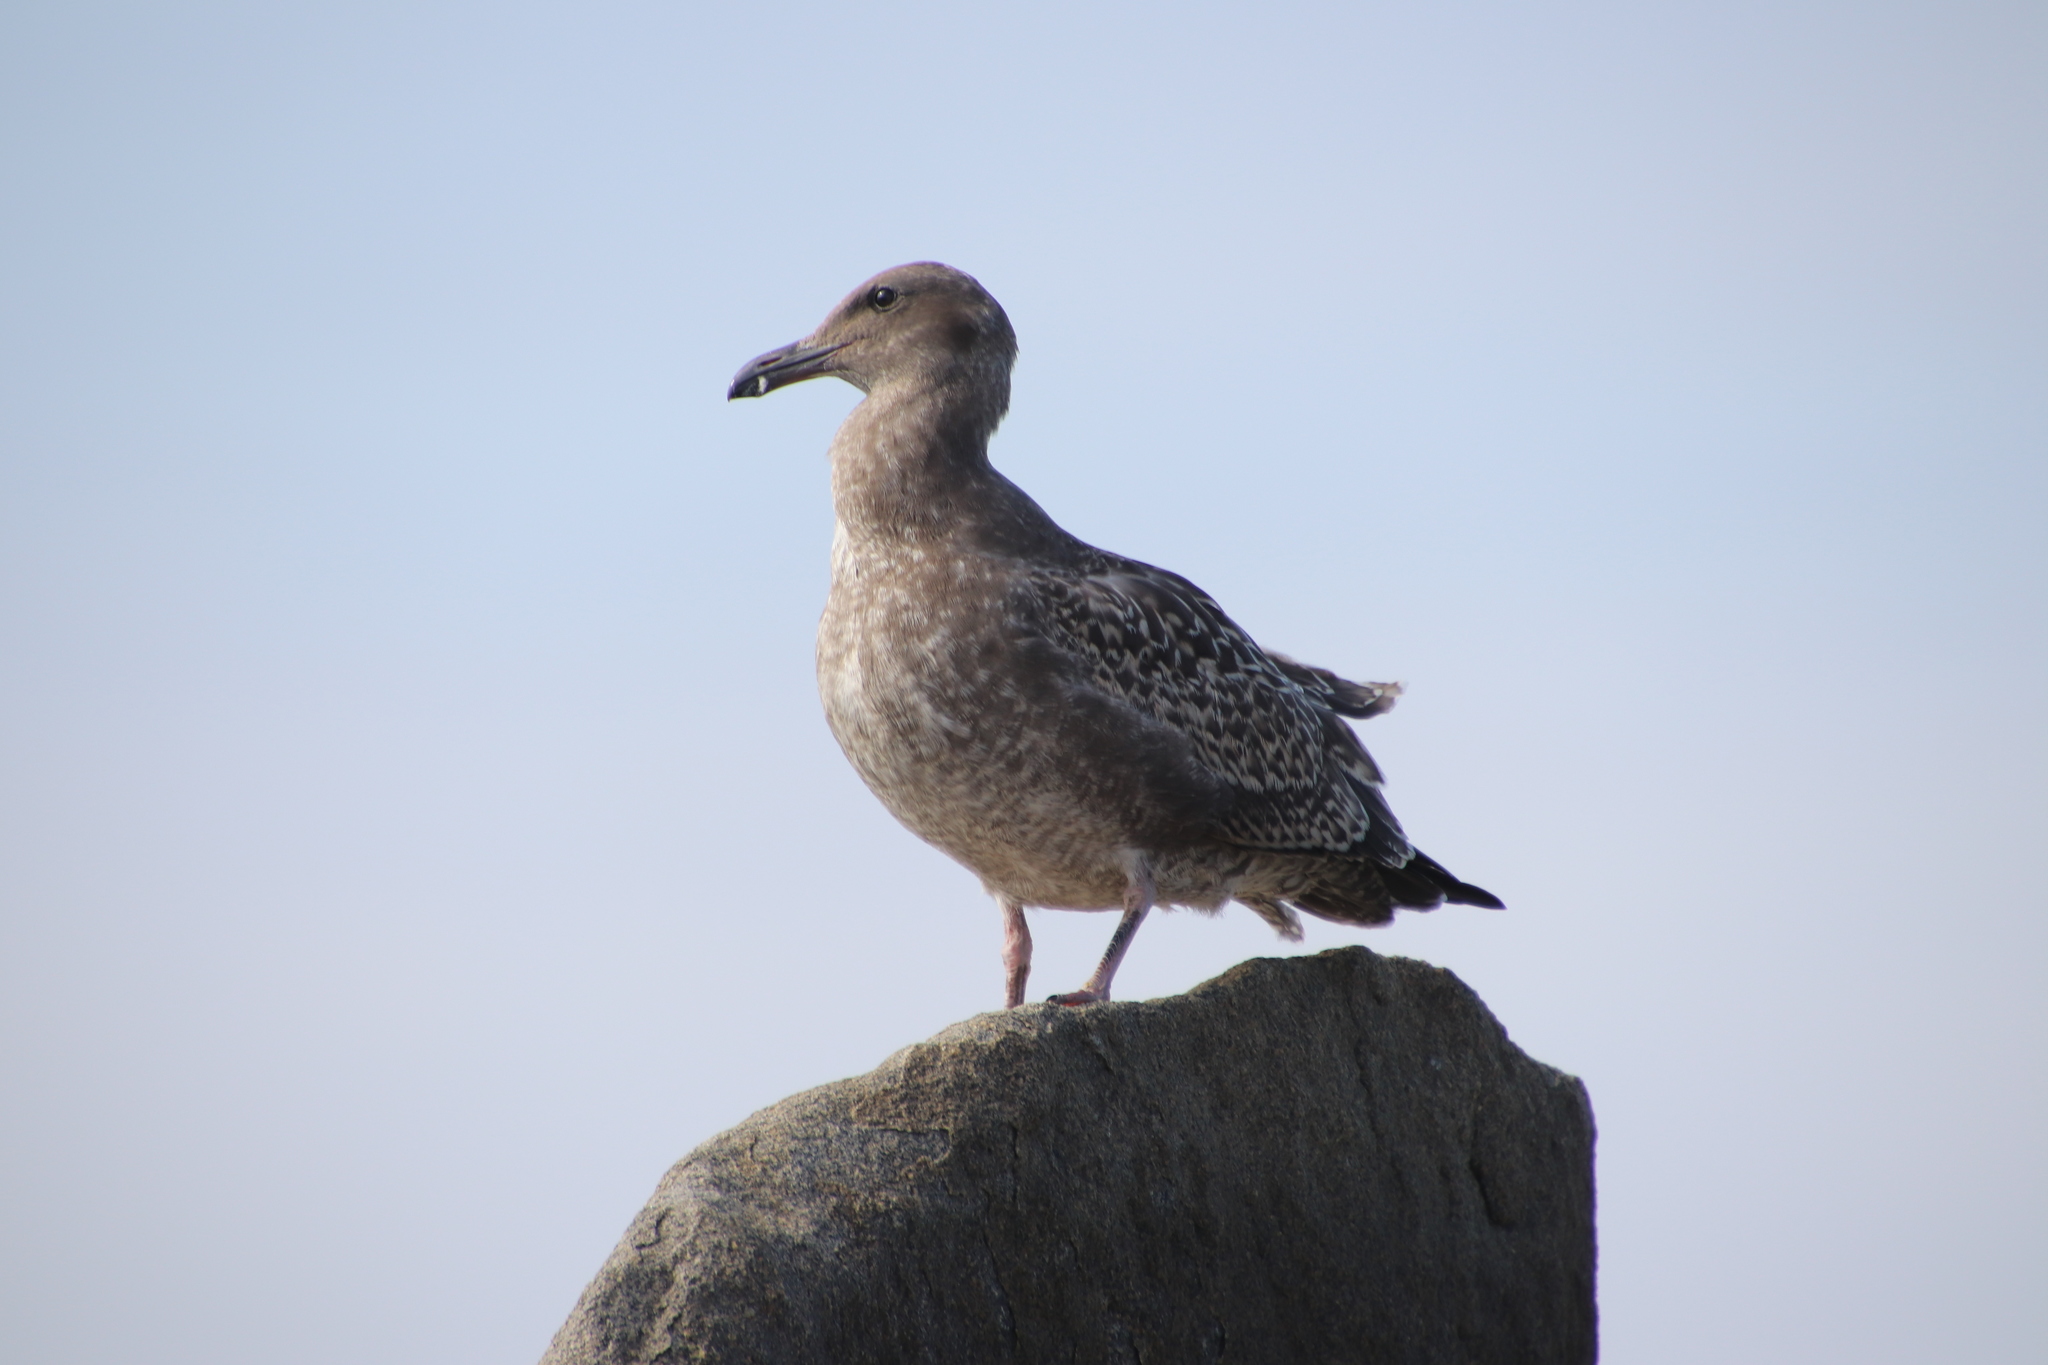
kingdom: Animalia
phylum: Chordata
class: Aves
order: Charadriiformes
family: Laridae
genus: Larus
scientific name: Larus occidentalis
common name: Western gull
